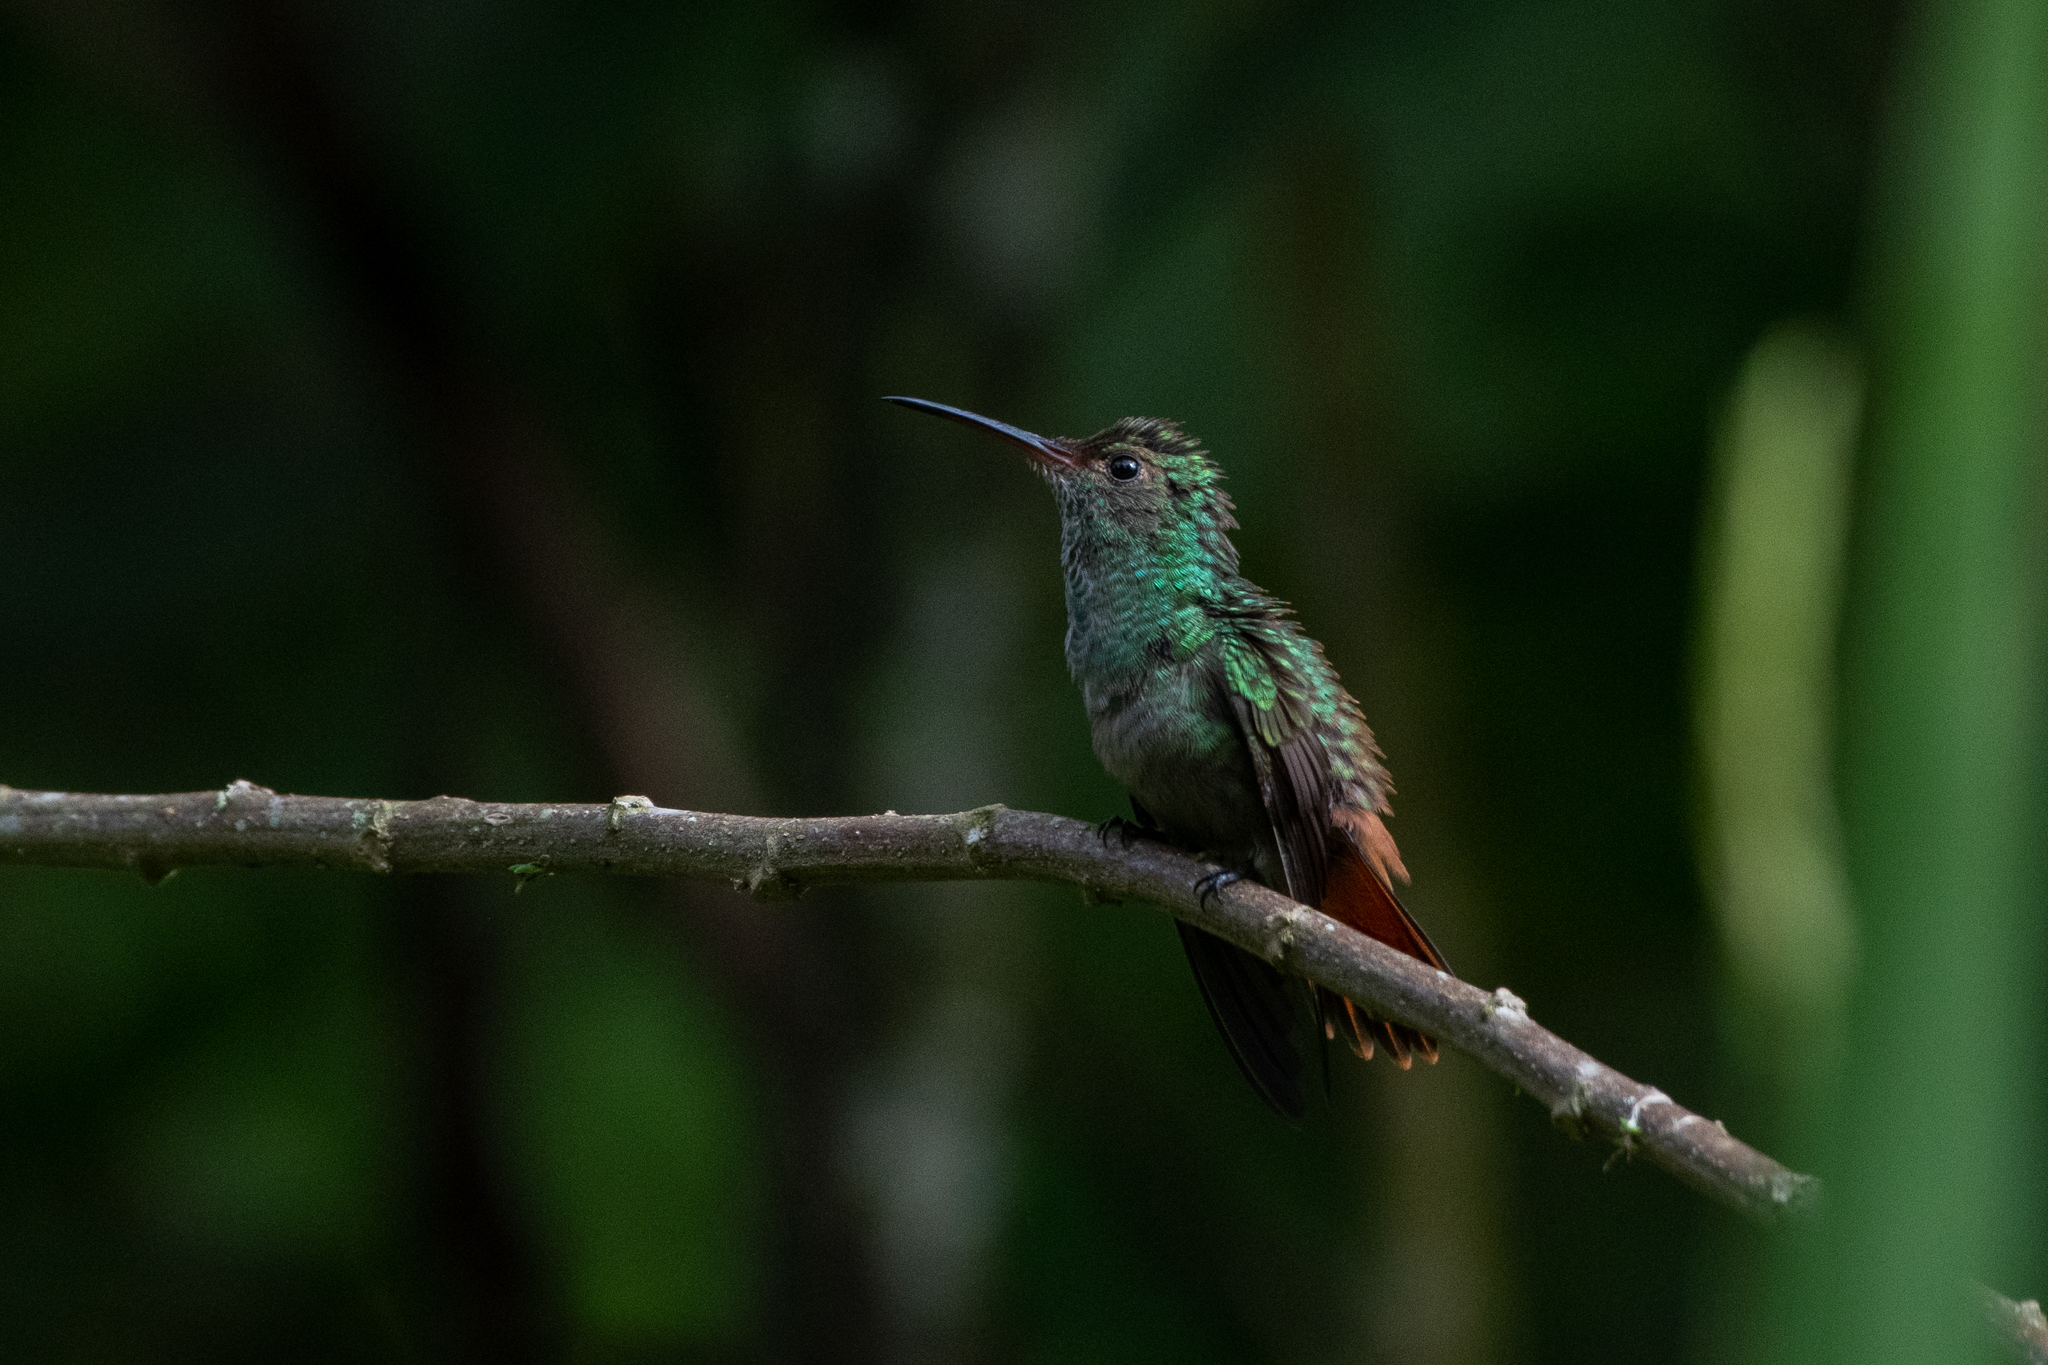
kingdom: Animalia
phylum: Chordata
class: Aves
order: Apodiformes
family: Trochilidae
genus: Amazilia
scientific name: Amazilia tzacatl
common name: Rufous-tailed hummingbird
